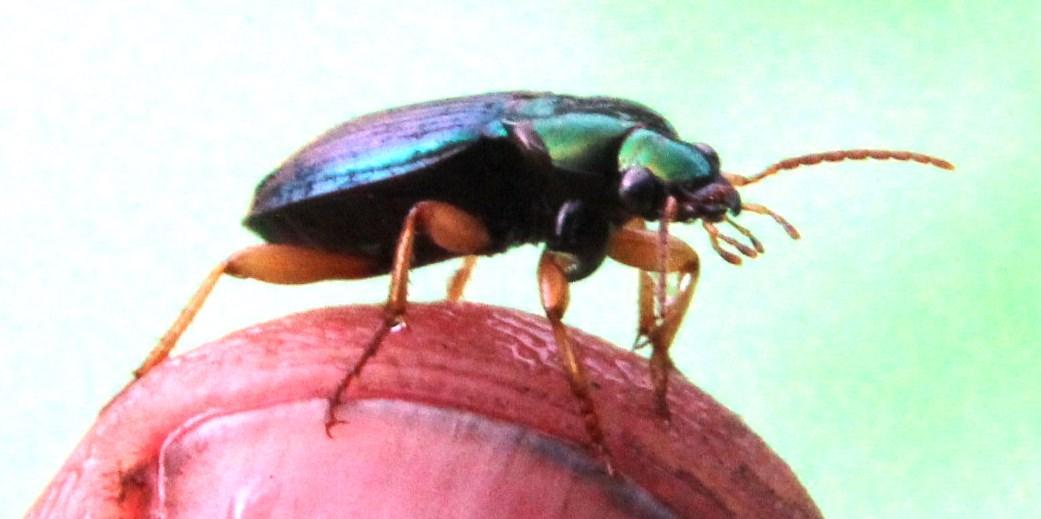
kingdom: Animalia
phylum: Arthropoda
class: Insecta
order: Coleoptera
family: Carabidae
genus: Chlaenius
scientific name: Chlaenius simplex
